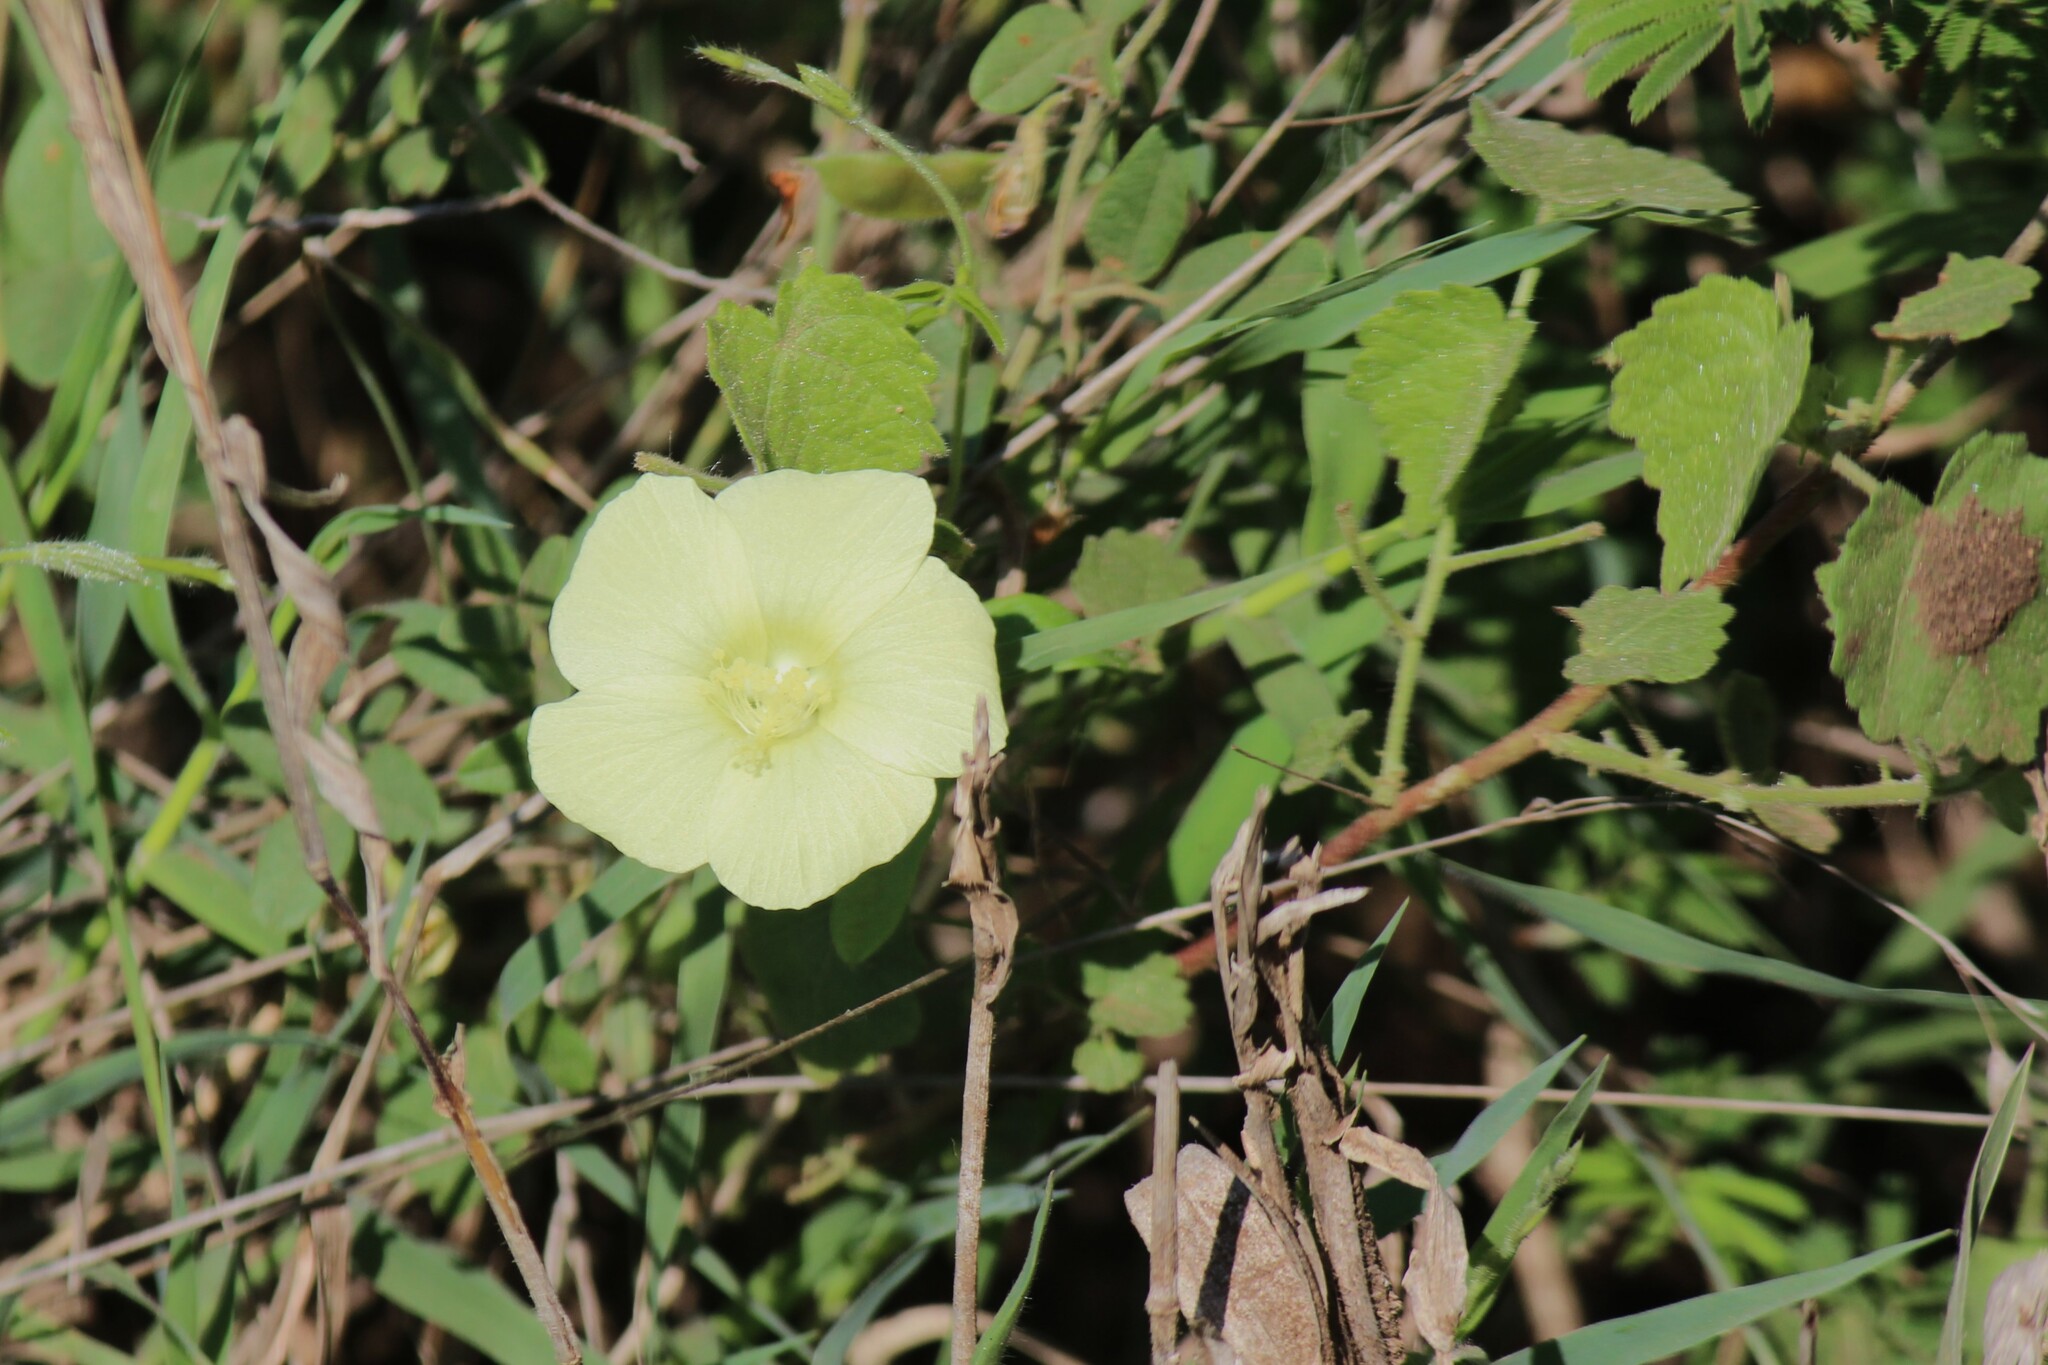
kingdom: Plantae
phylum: Tracheophyta
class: Magnoliopsida
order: Malvales
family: Malvaceae
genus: Pavonia
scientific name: Pavonia burchellii
